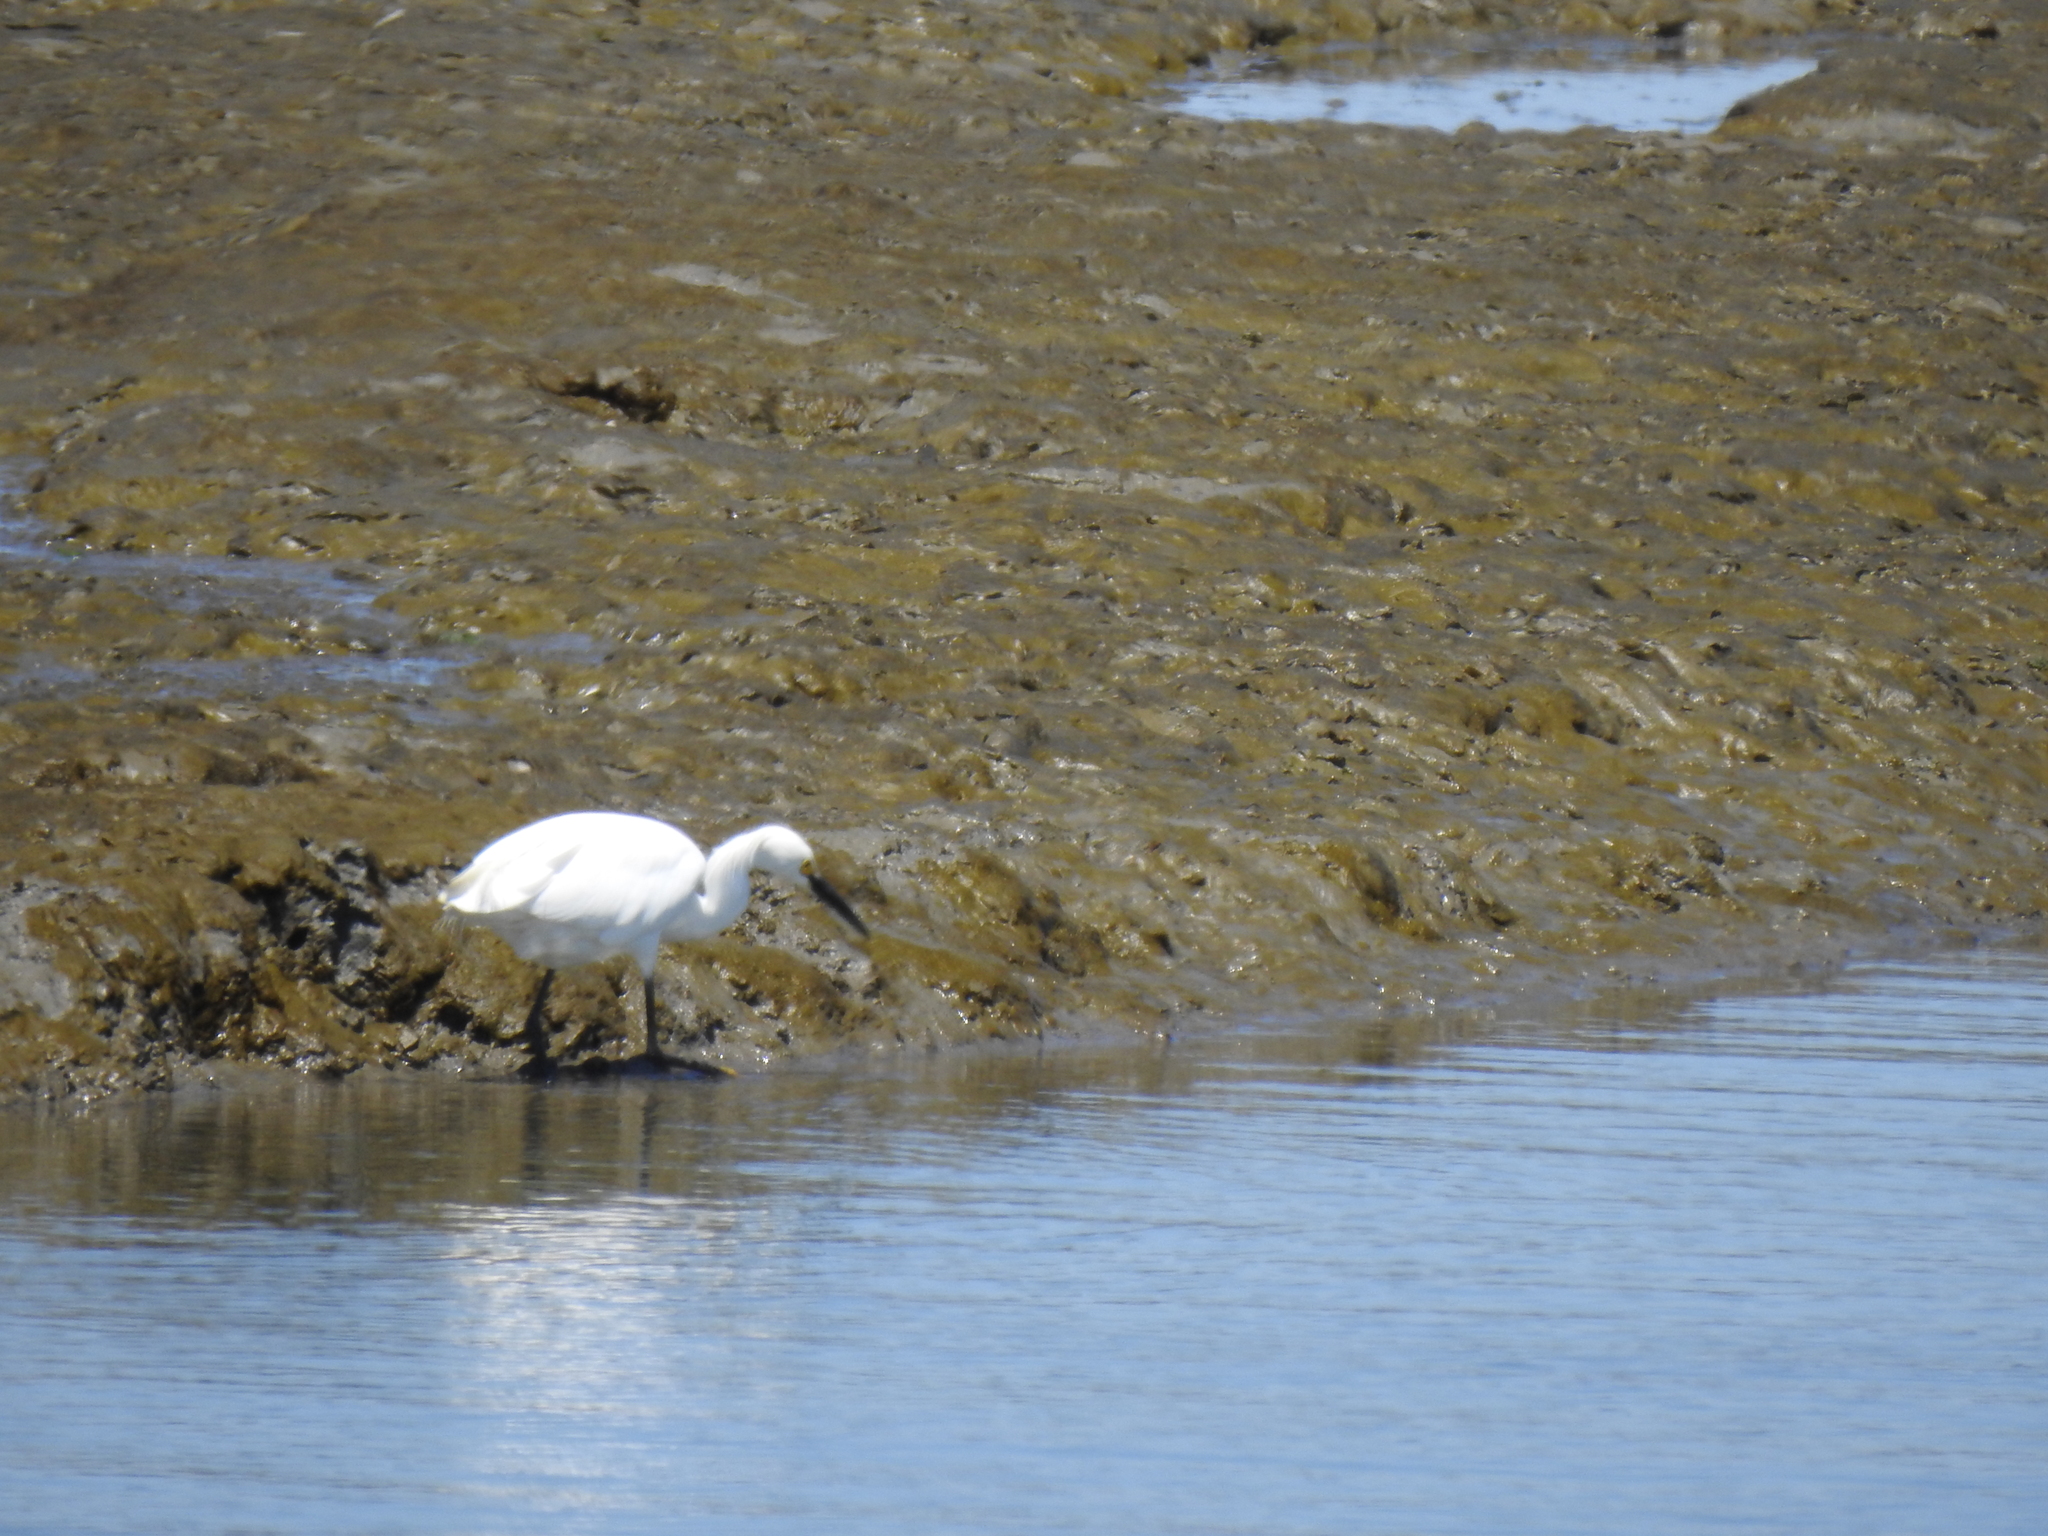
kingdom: Animalia
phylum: Chordata
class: Aves
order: Pelecaniformes
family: Ardeidae
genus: Egretta
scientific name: Egretta thula
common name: Snowy egret
